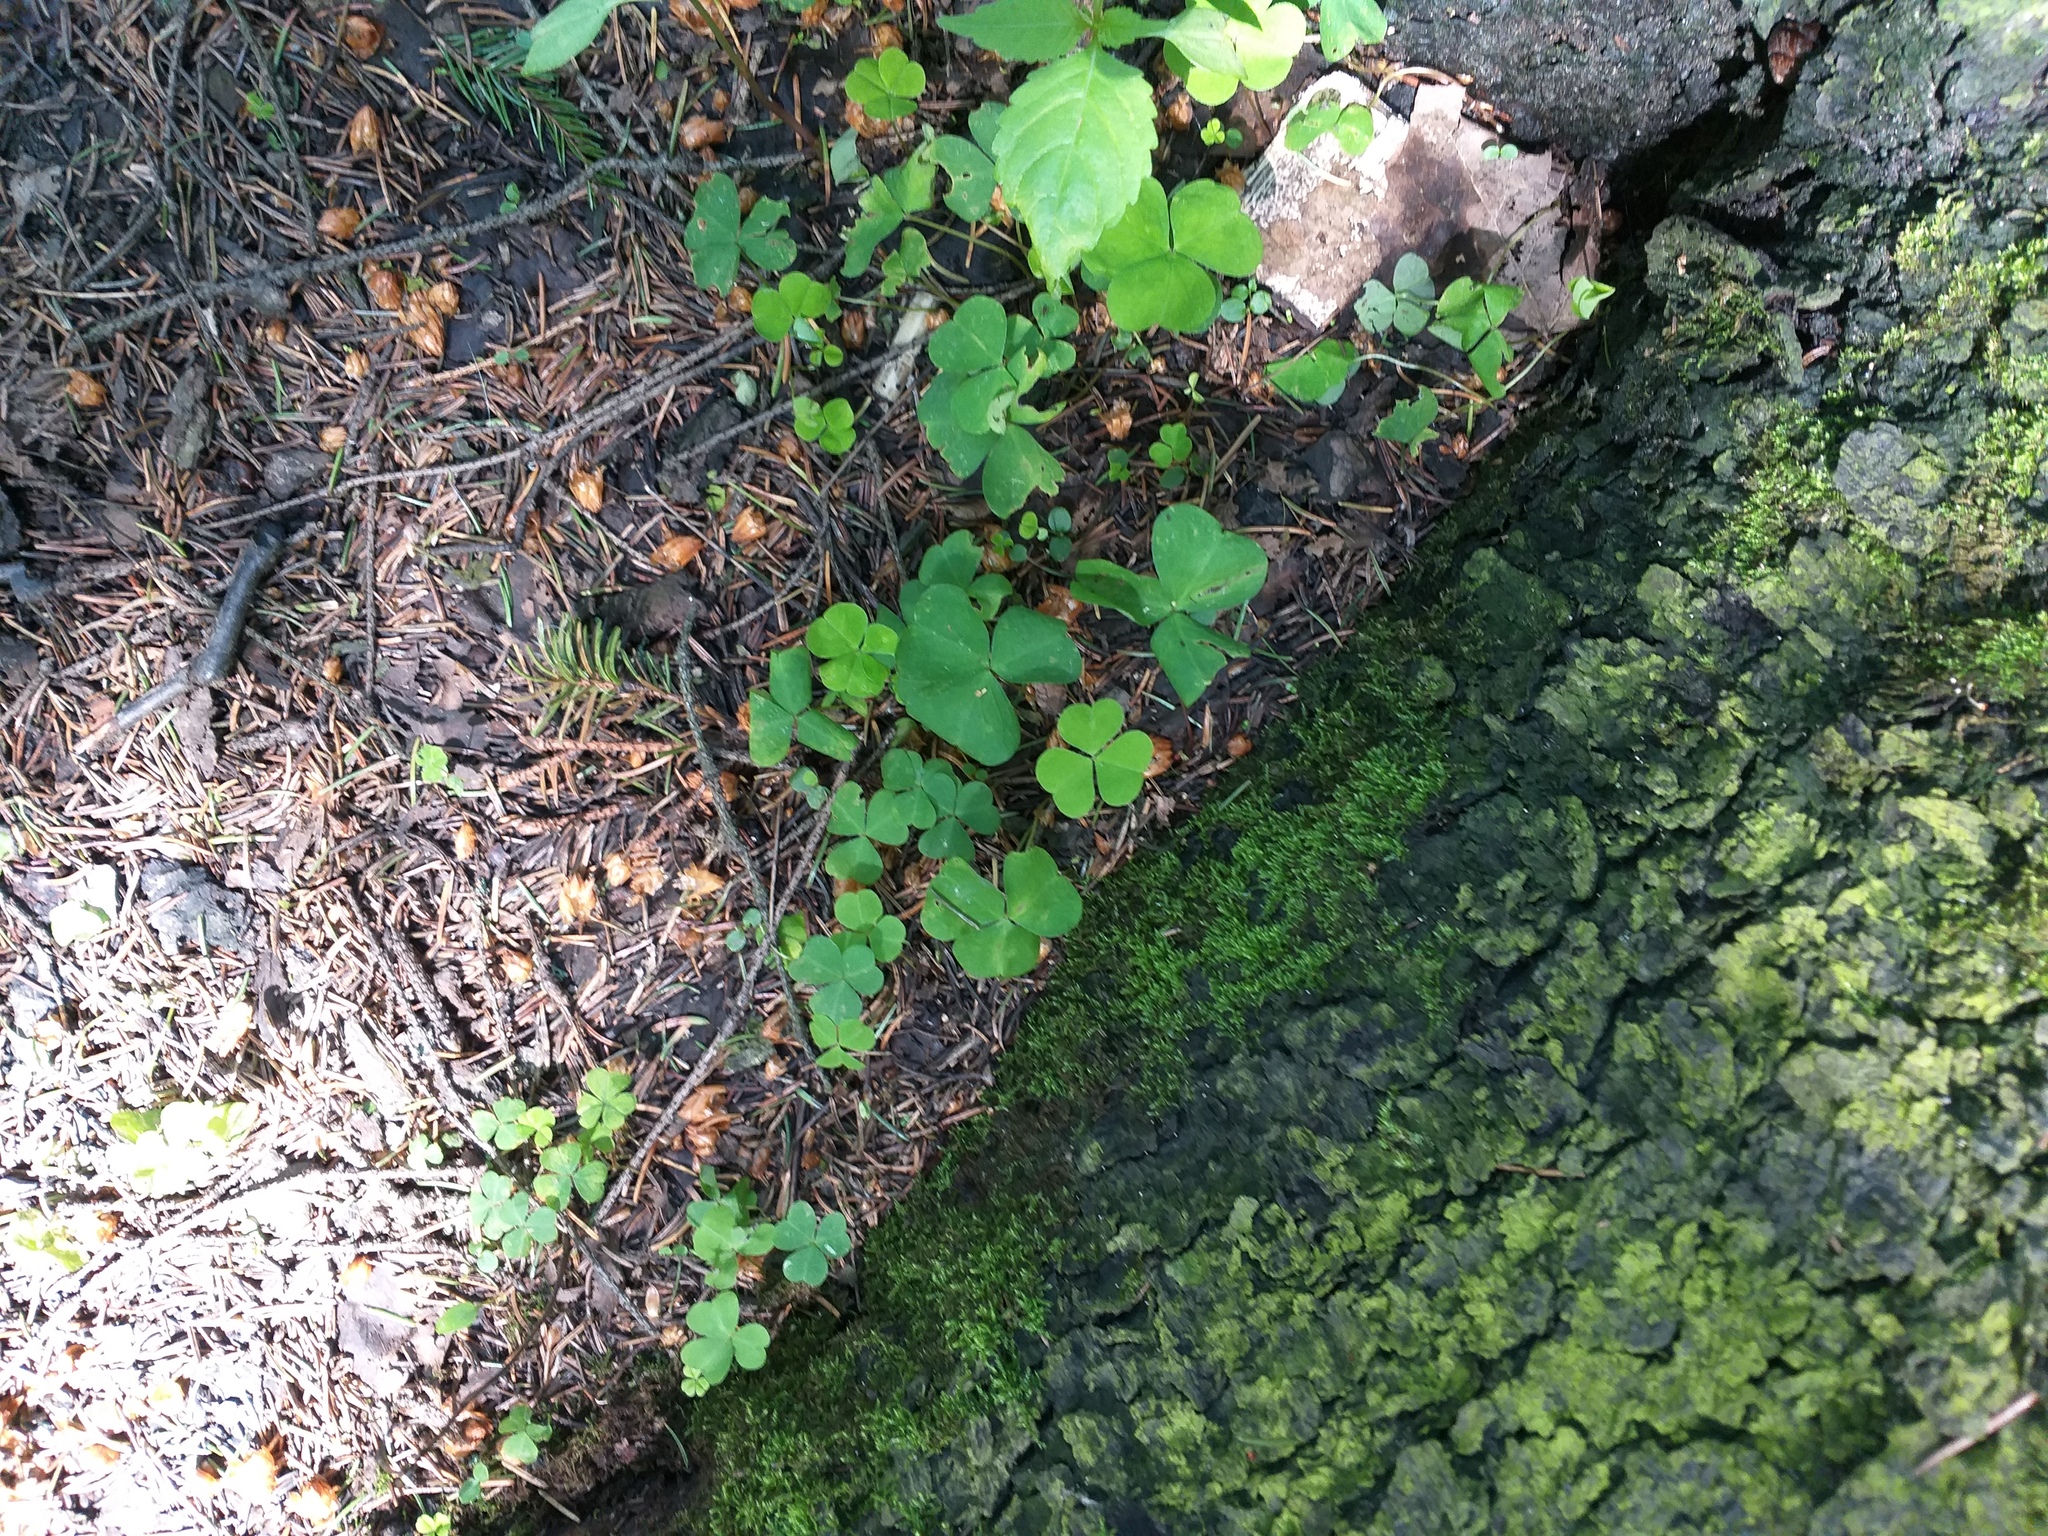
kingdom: Plantae
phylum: Tracheophyta
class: Magnoliopsida
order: Oxalidales
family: Oxalidaceae
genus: Oxalis
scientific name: Oxalis acetosella
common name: Wood-sorrel
